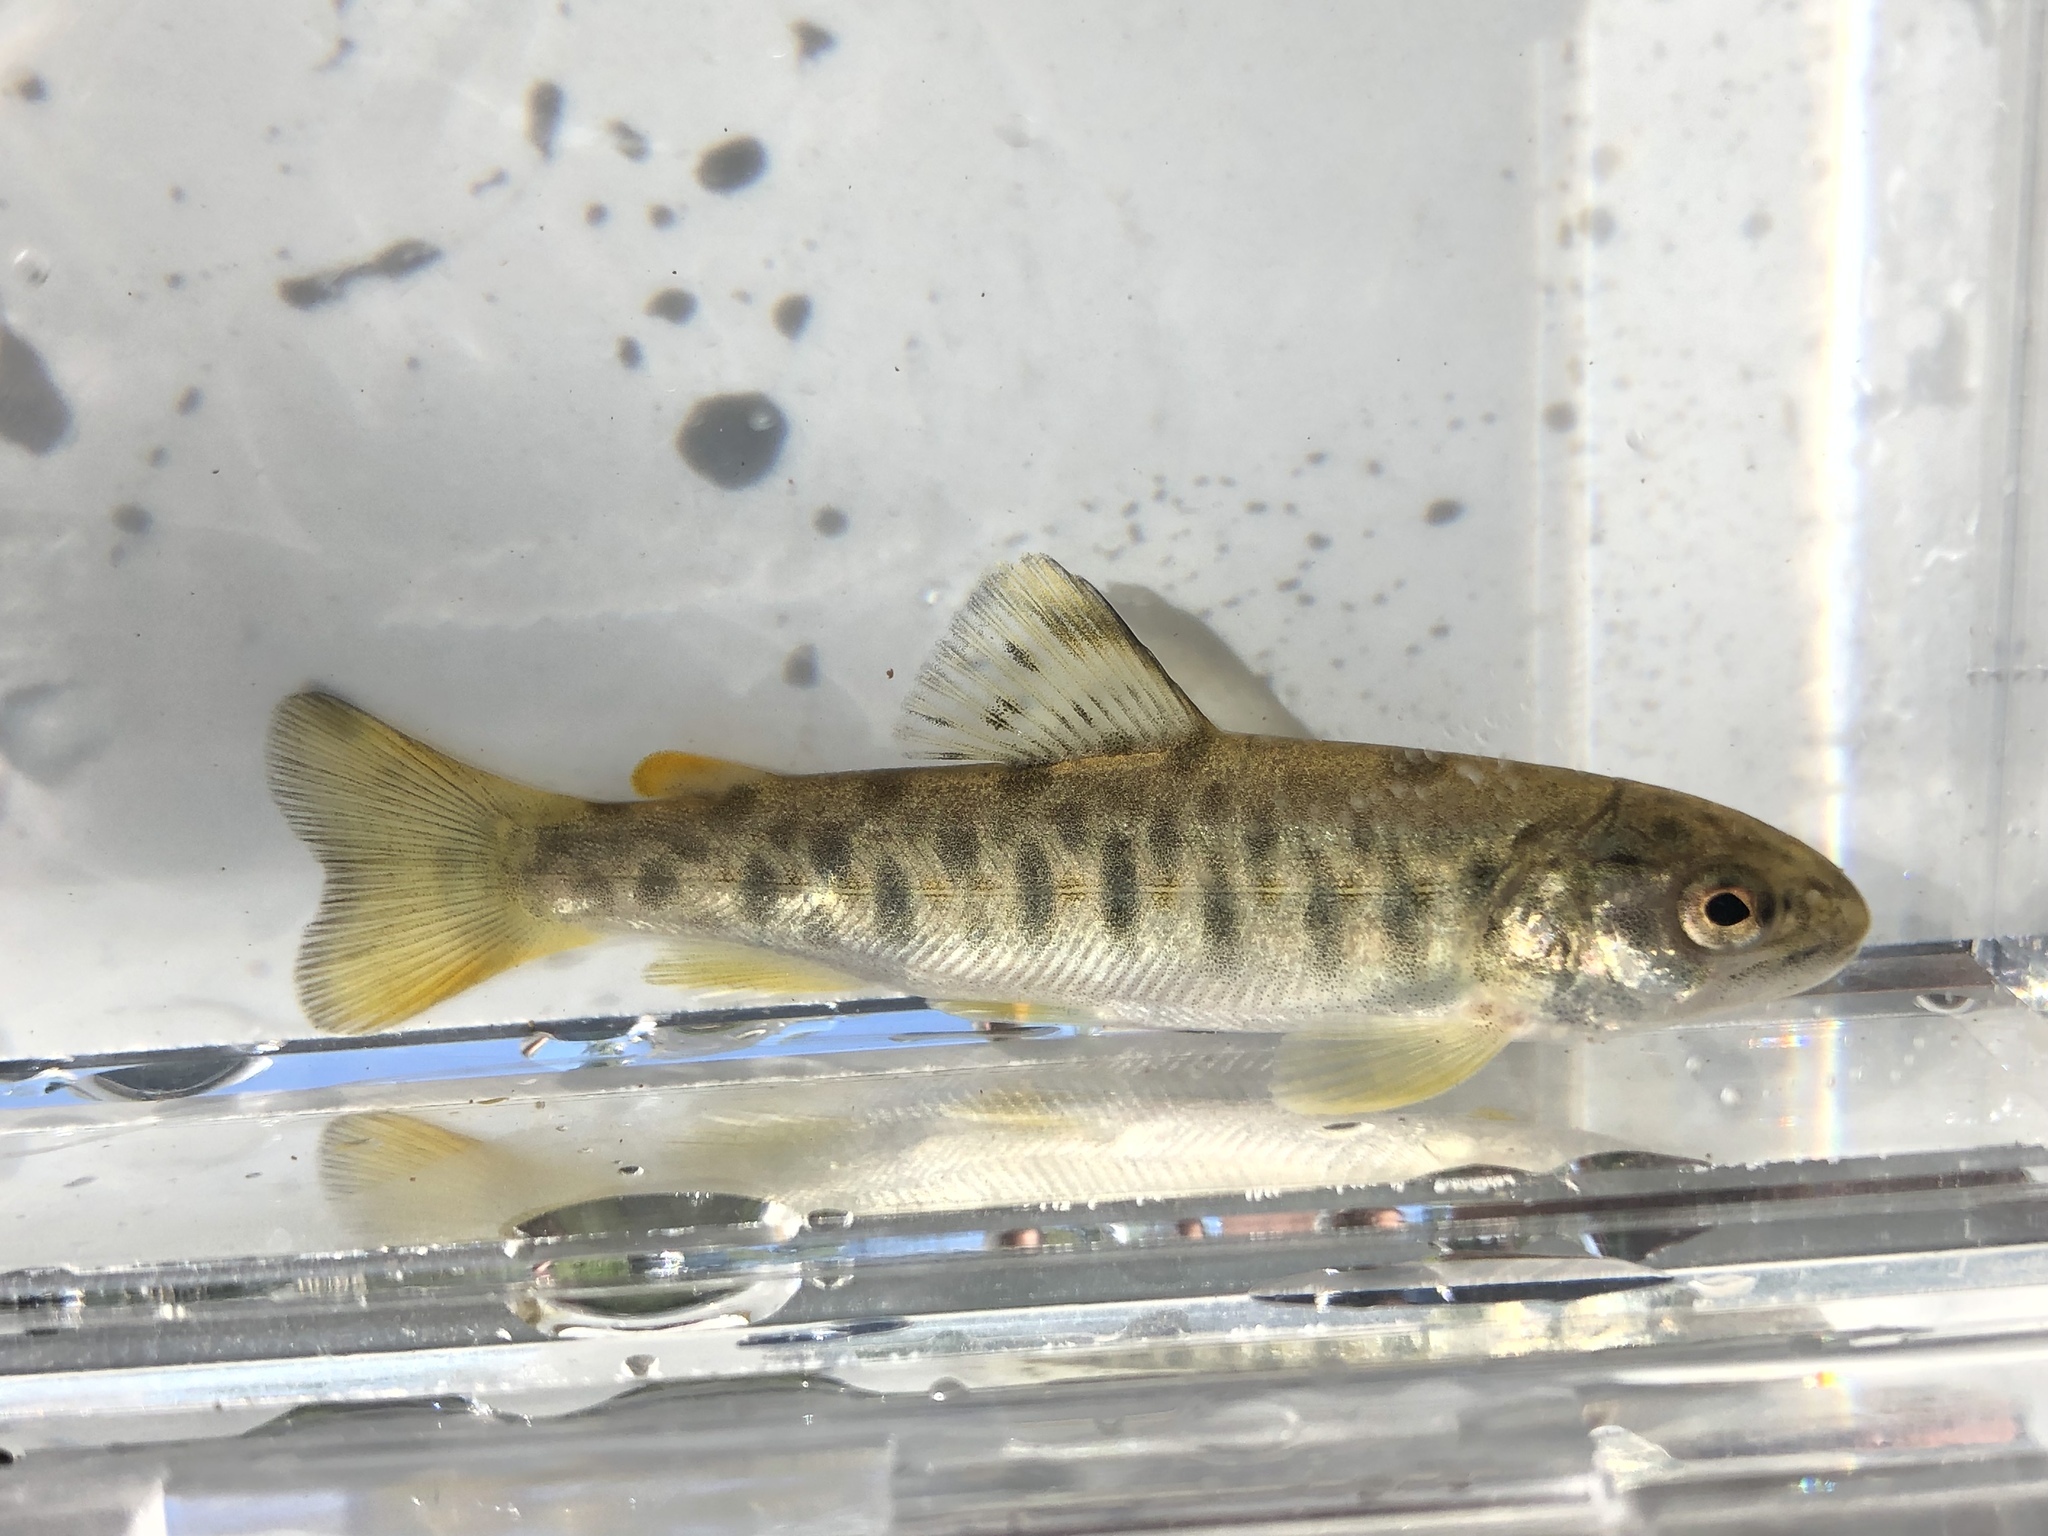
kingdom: Animalia
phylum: Chordata
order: Salmoniformes
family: Salmonidae
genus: Salmo
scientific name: Salmo trutta
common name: Brown trout
